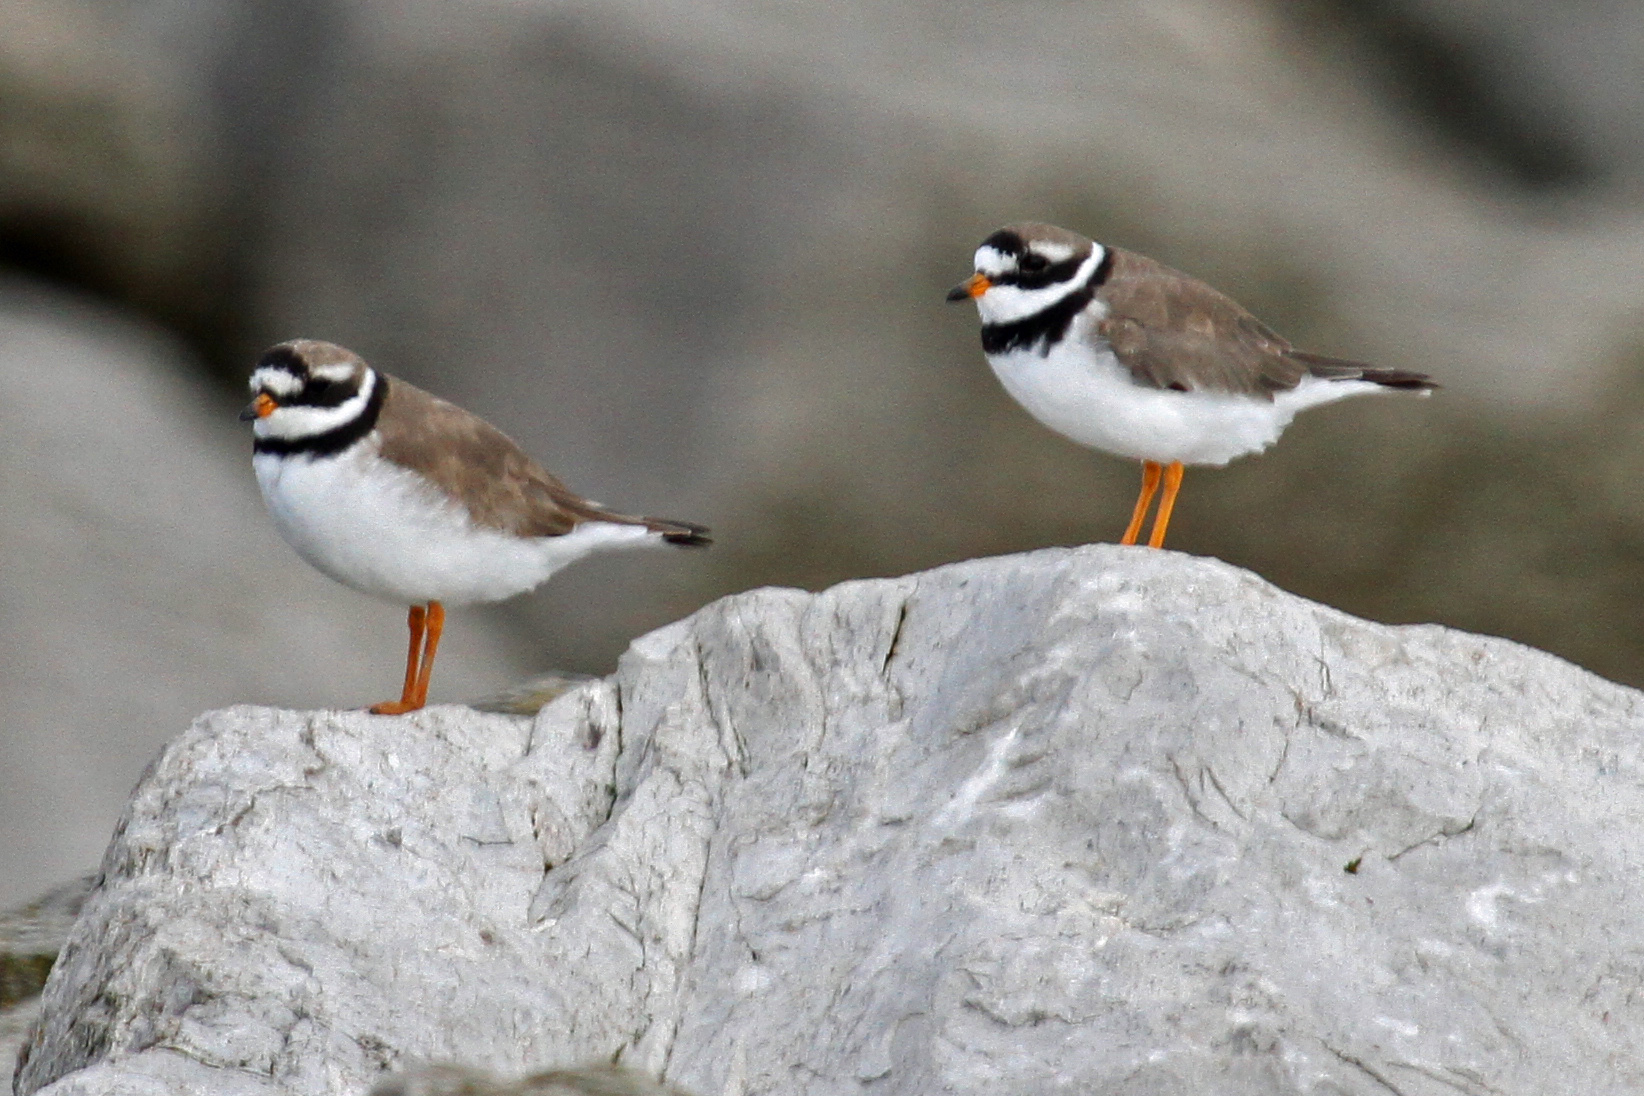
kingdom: Animalia
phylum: Chordata
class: Aves
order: Charadriiformes
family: Charadriidae
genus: Charadrius
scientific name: Charadrius hiaticula
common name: Common ringed plover
